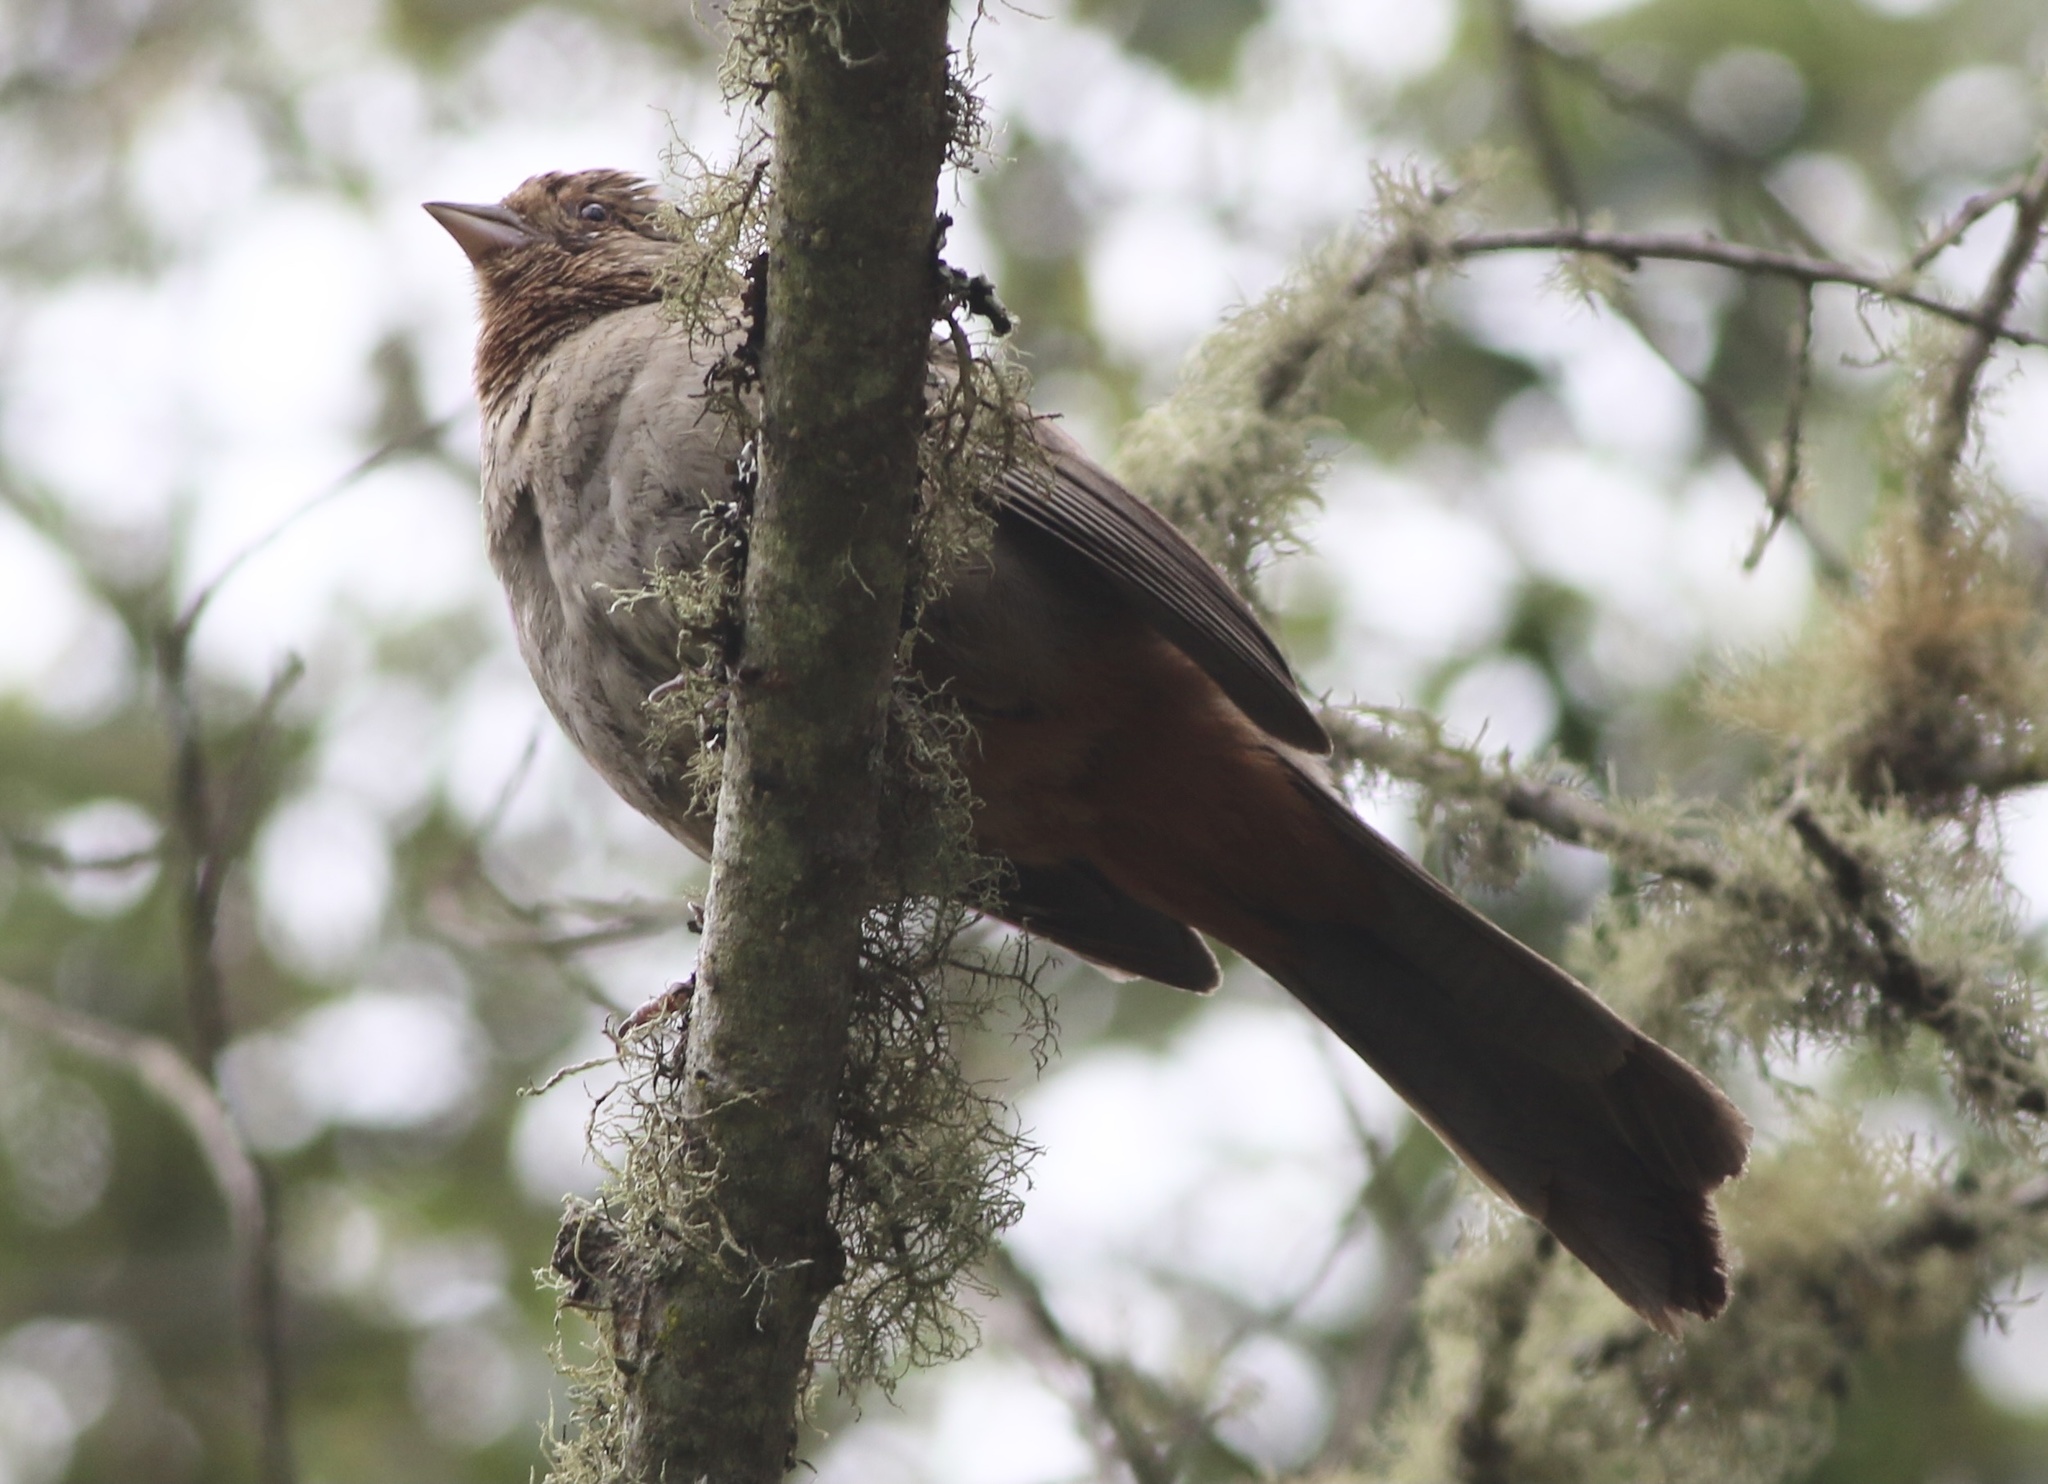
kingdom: Animalia
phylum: Chordata
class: Aves
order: Passeriformes
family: Passerellidae
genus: Melozone
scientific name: Melozone crissalis
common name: California towhee
